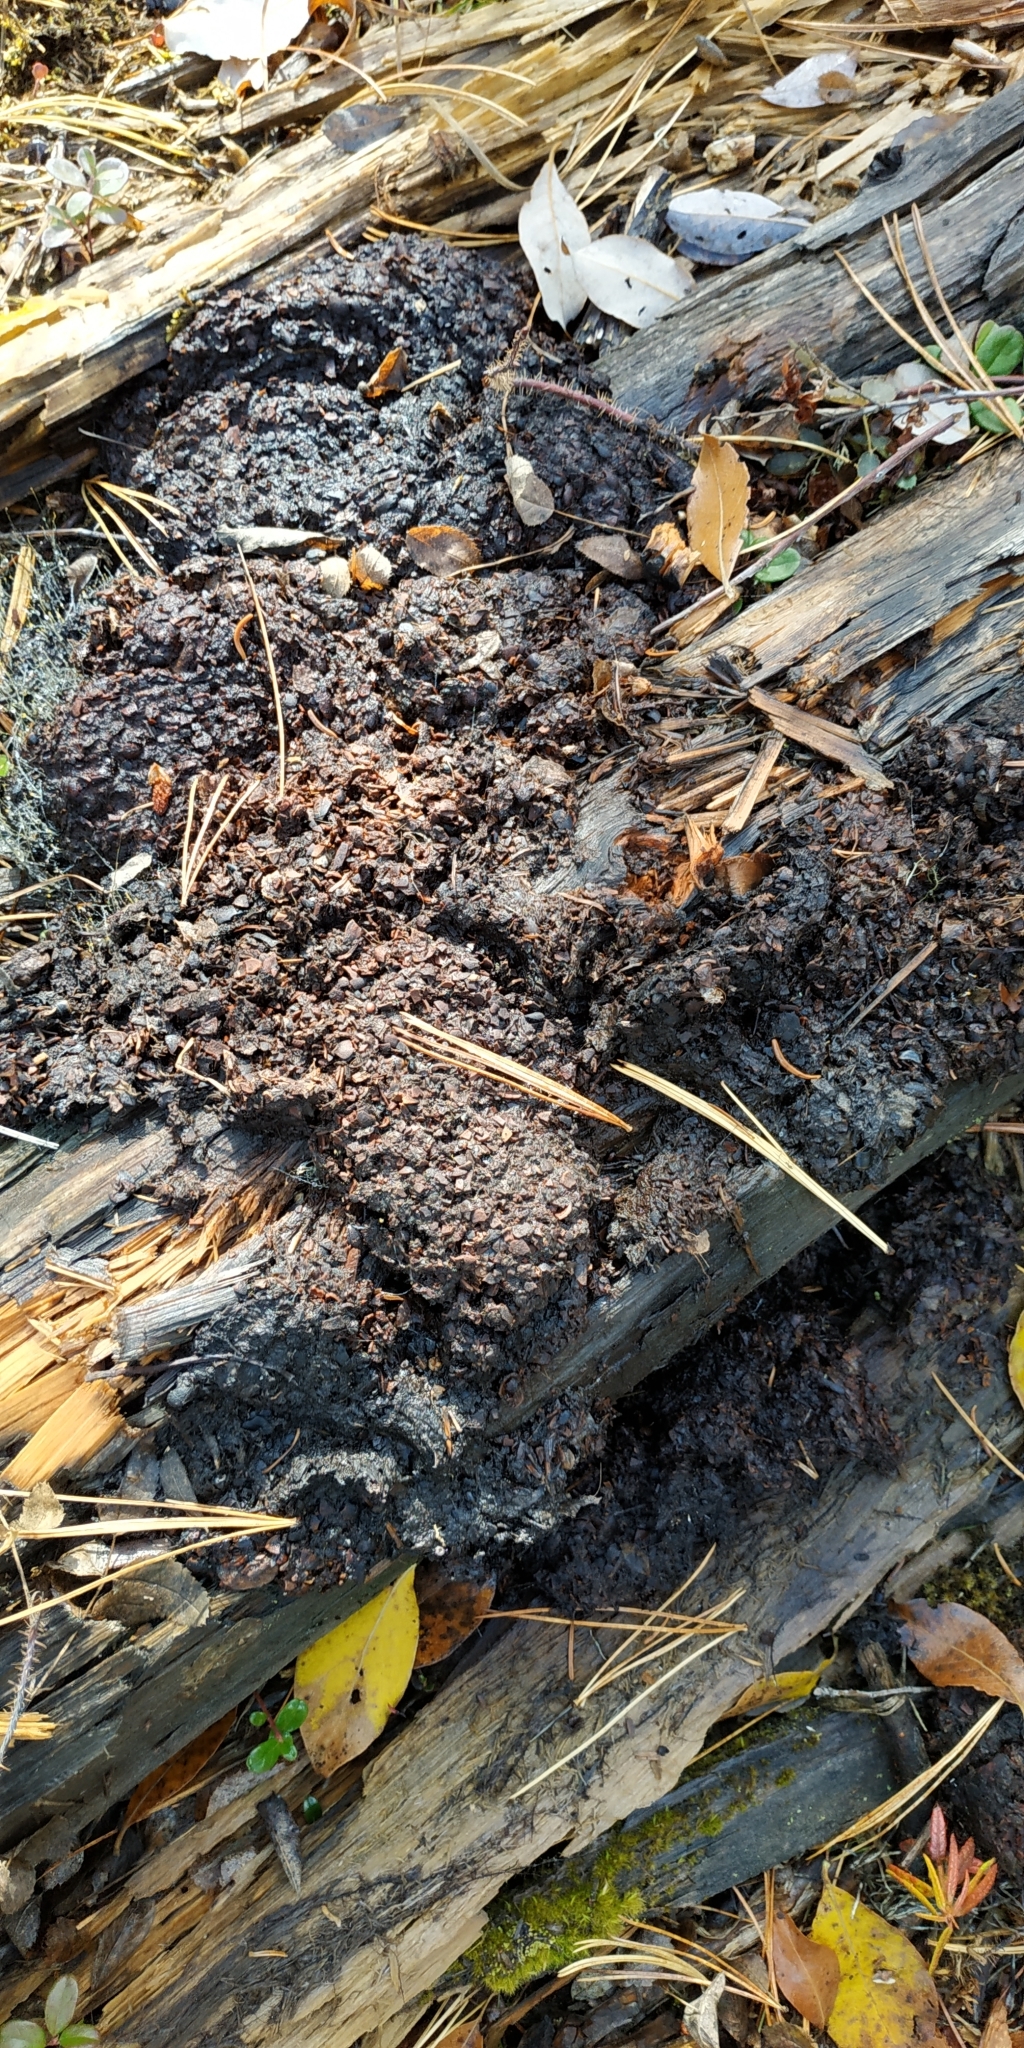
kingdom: Animalia
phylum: Chordata
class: Mammalia
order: Carnivora
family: Ursidae
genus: Ursus
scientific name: Ursus arctos
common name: Brown bear
